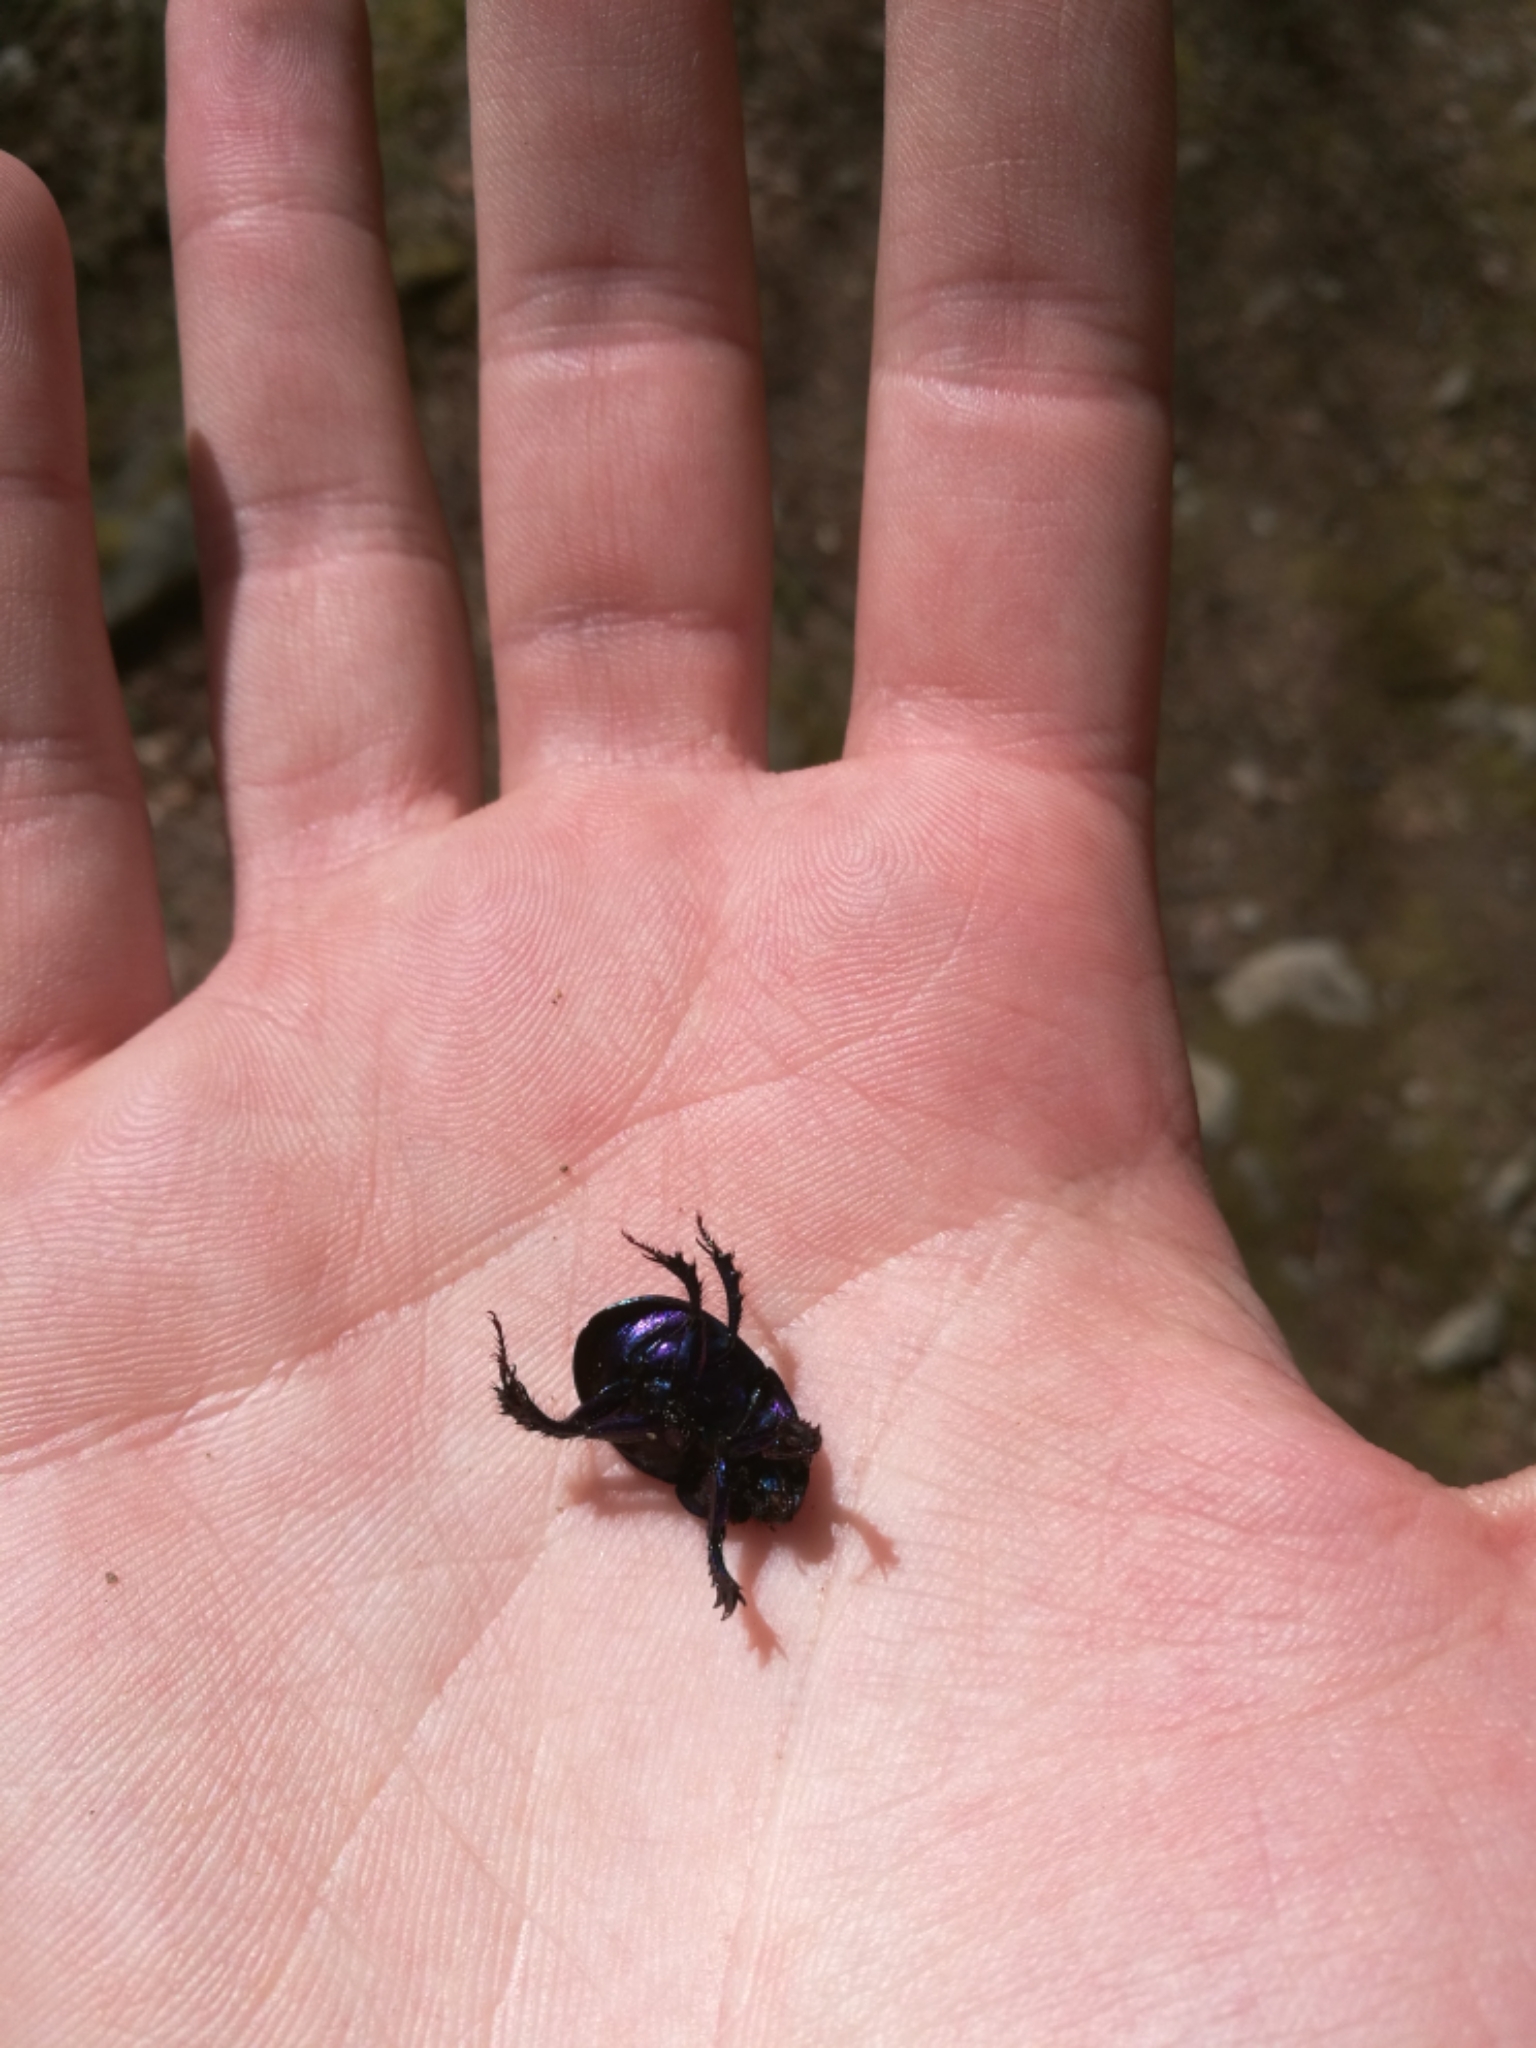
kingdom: Animalia
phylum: Arthropoda
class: Insecta
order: Coleoptera
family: Geotrupidae
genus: Anoplotrupes
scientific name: Anoplotrupes stercorosus
